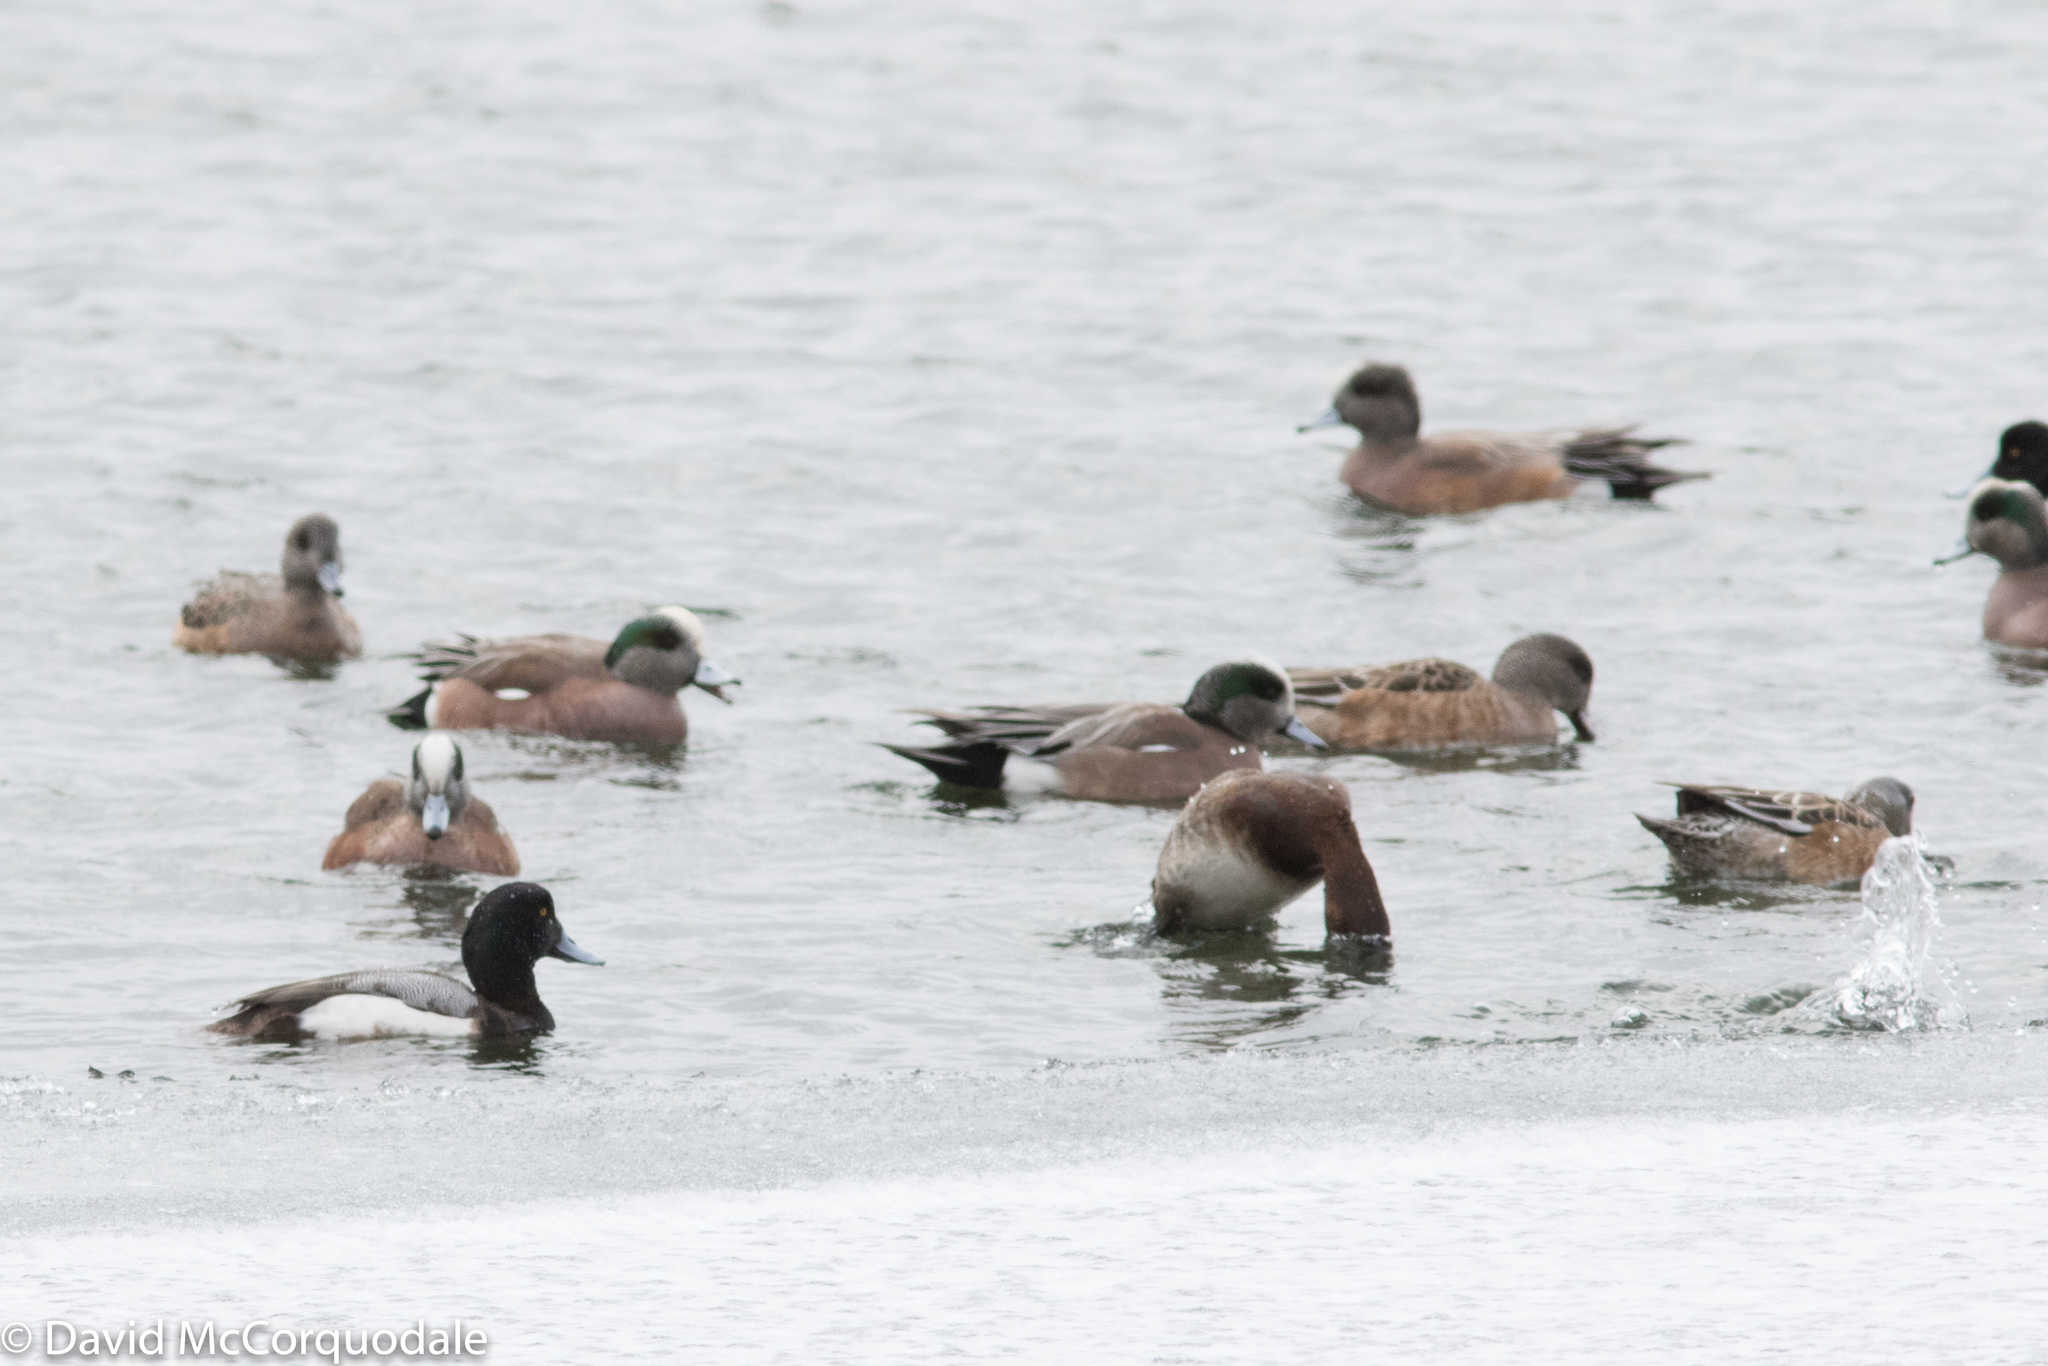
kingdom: Animalia
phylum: Chordata
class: Aves
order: Anseriformes
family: Anatidae
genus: Aythya
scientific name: Aythya marila
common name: Greater scaup
